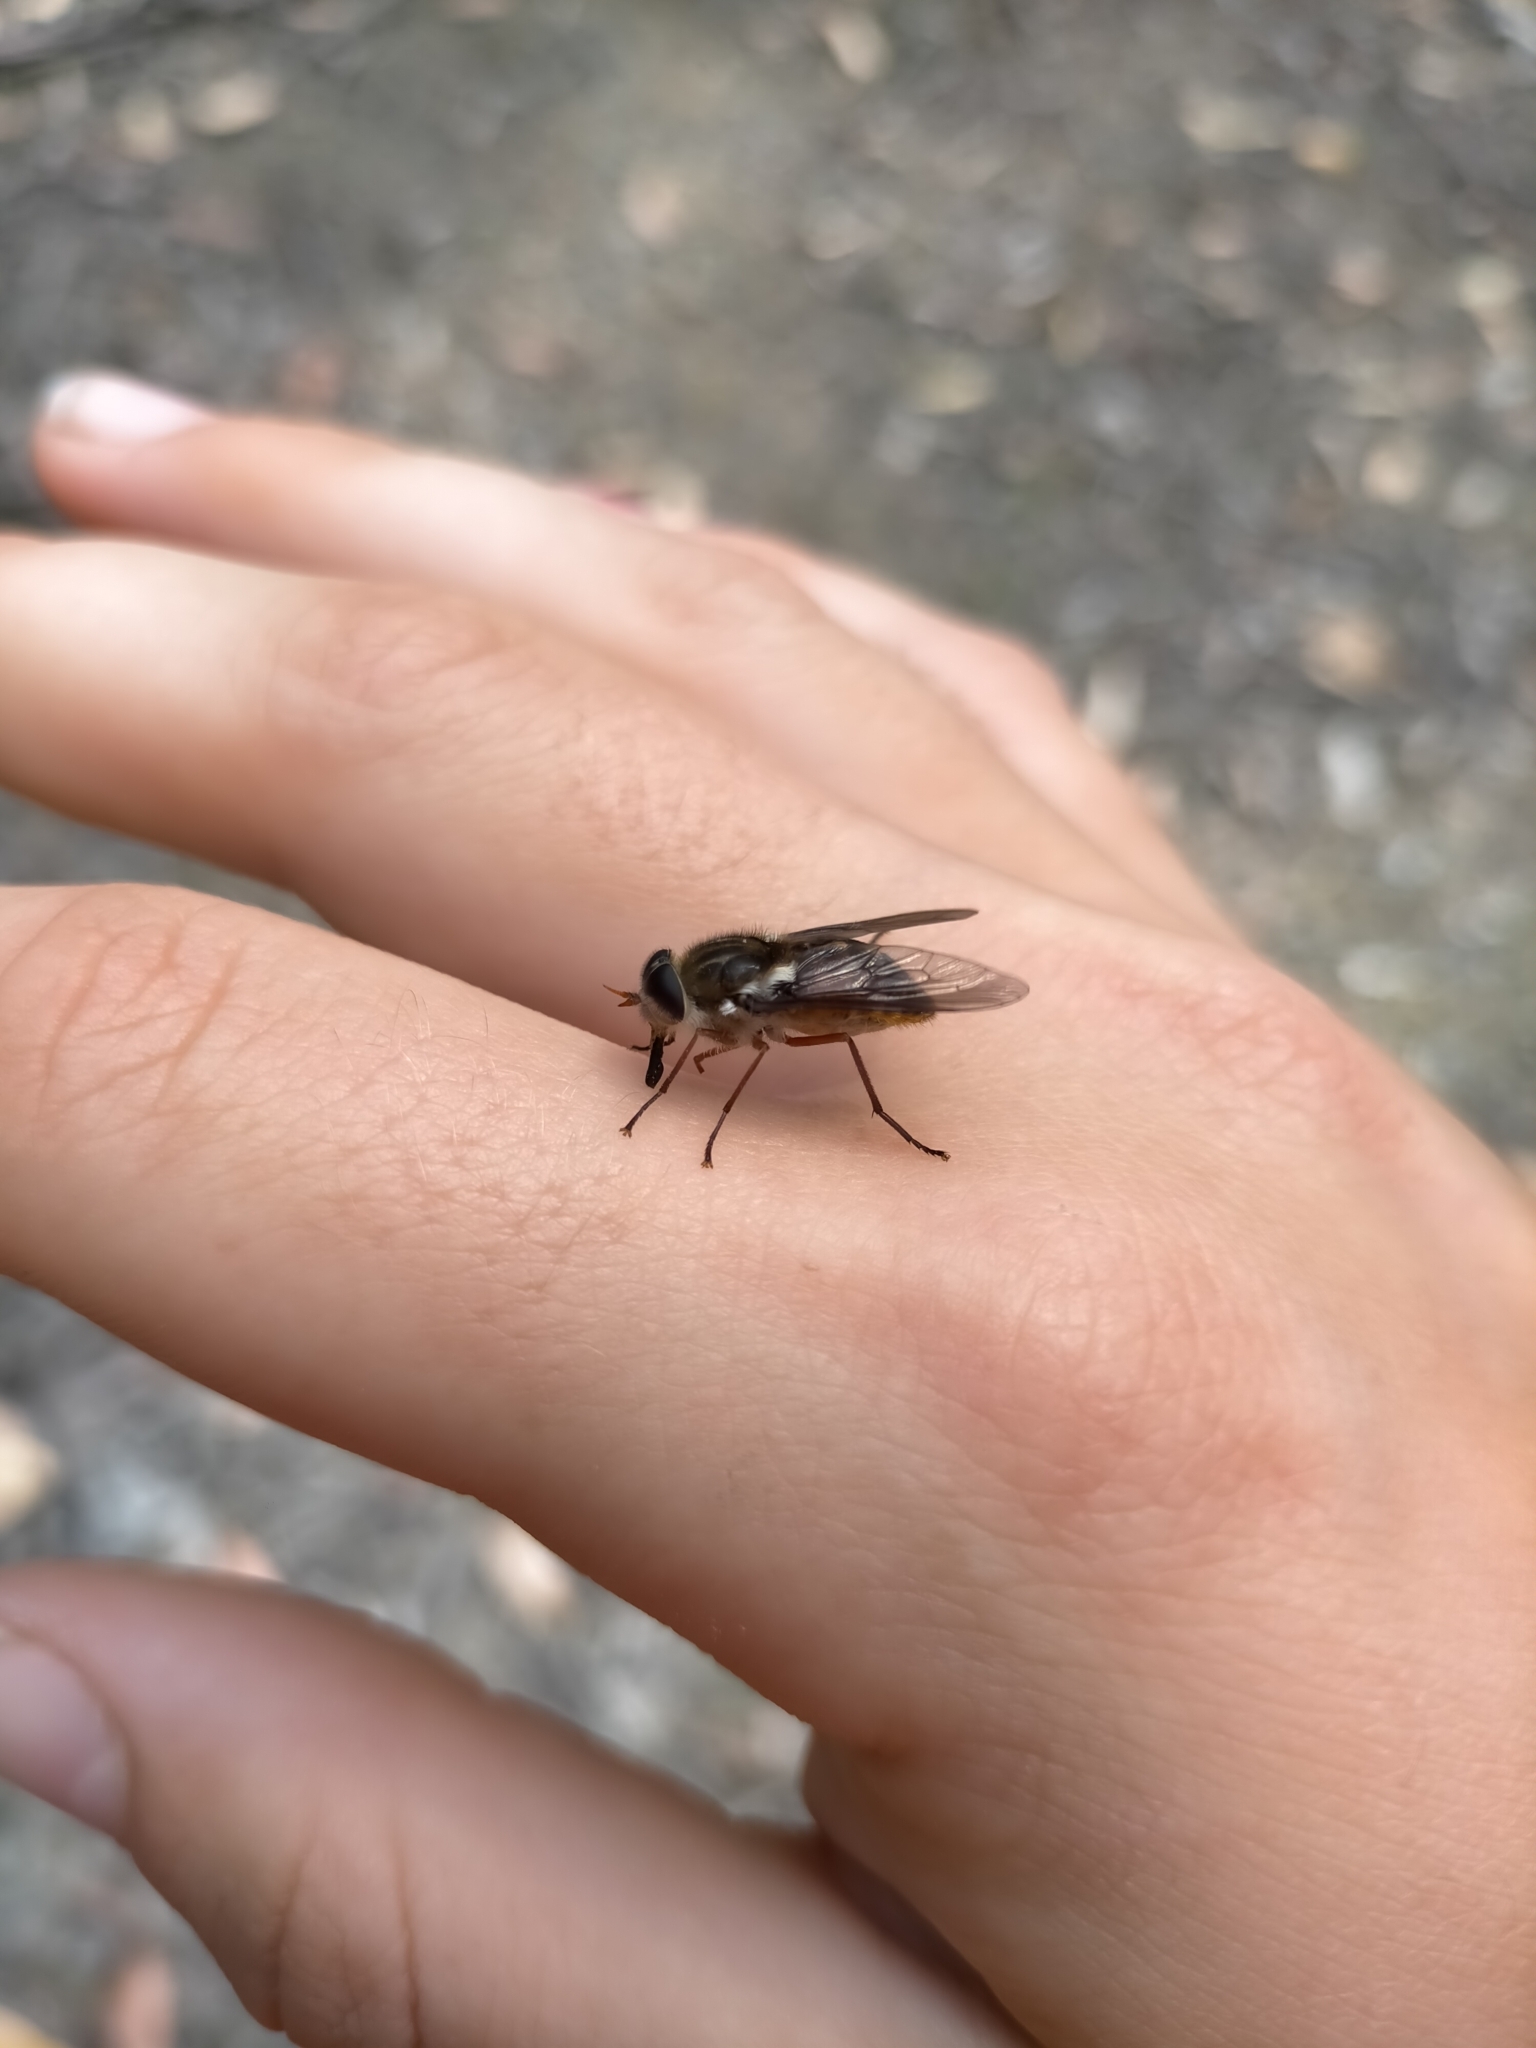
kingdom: Animalia
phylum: Arthropoda
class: Insecta
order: Diptera
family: Tabanidae
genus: Scaptia
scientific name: Scaptia jacksonii
